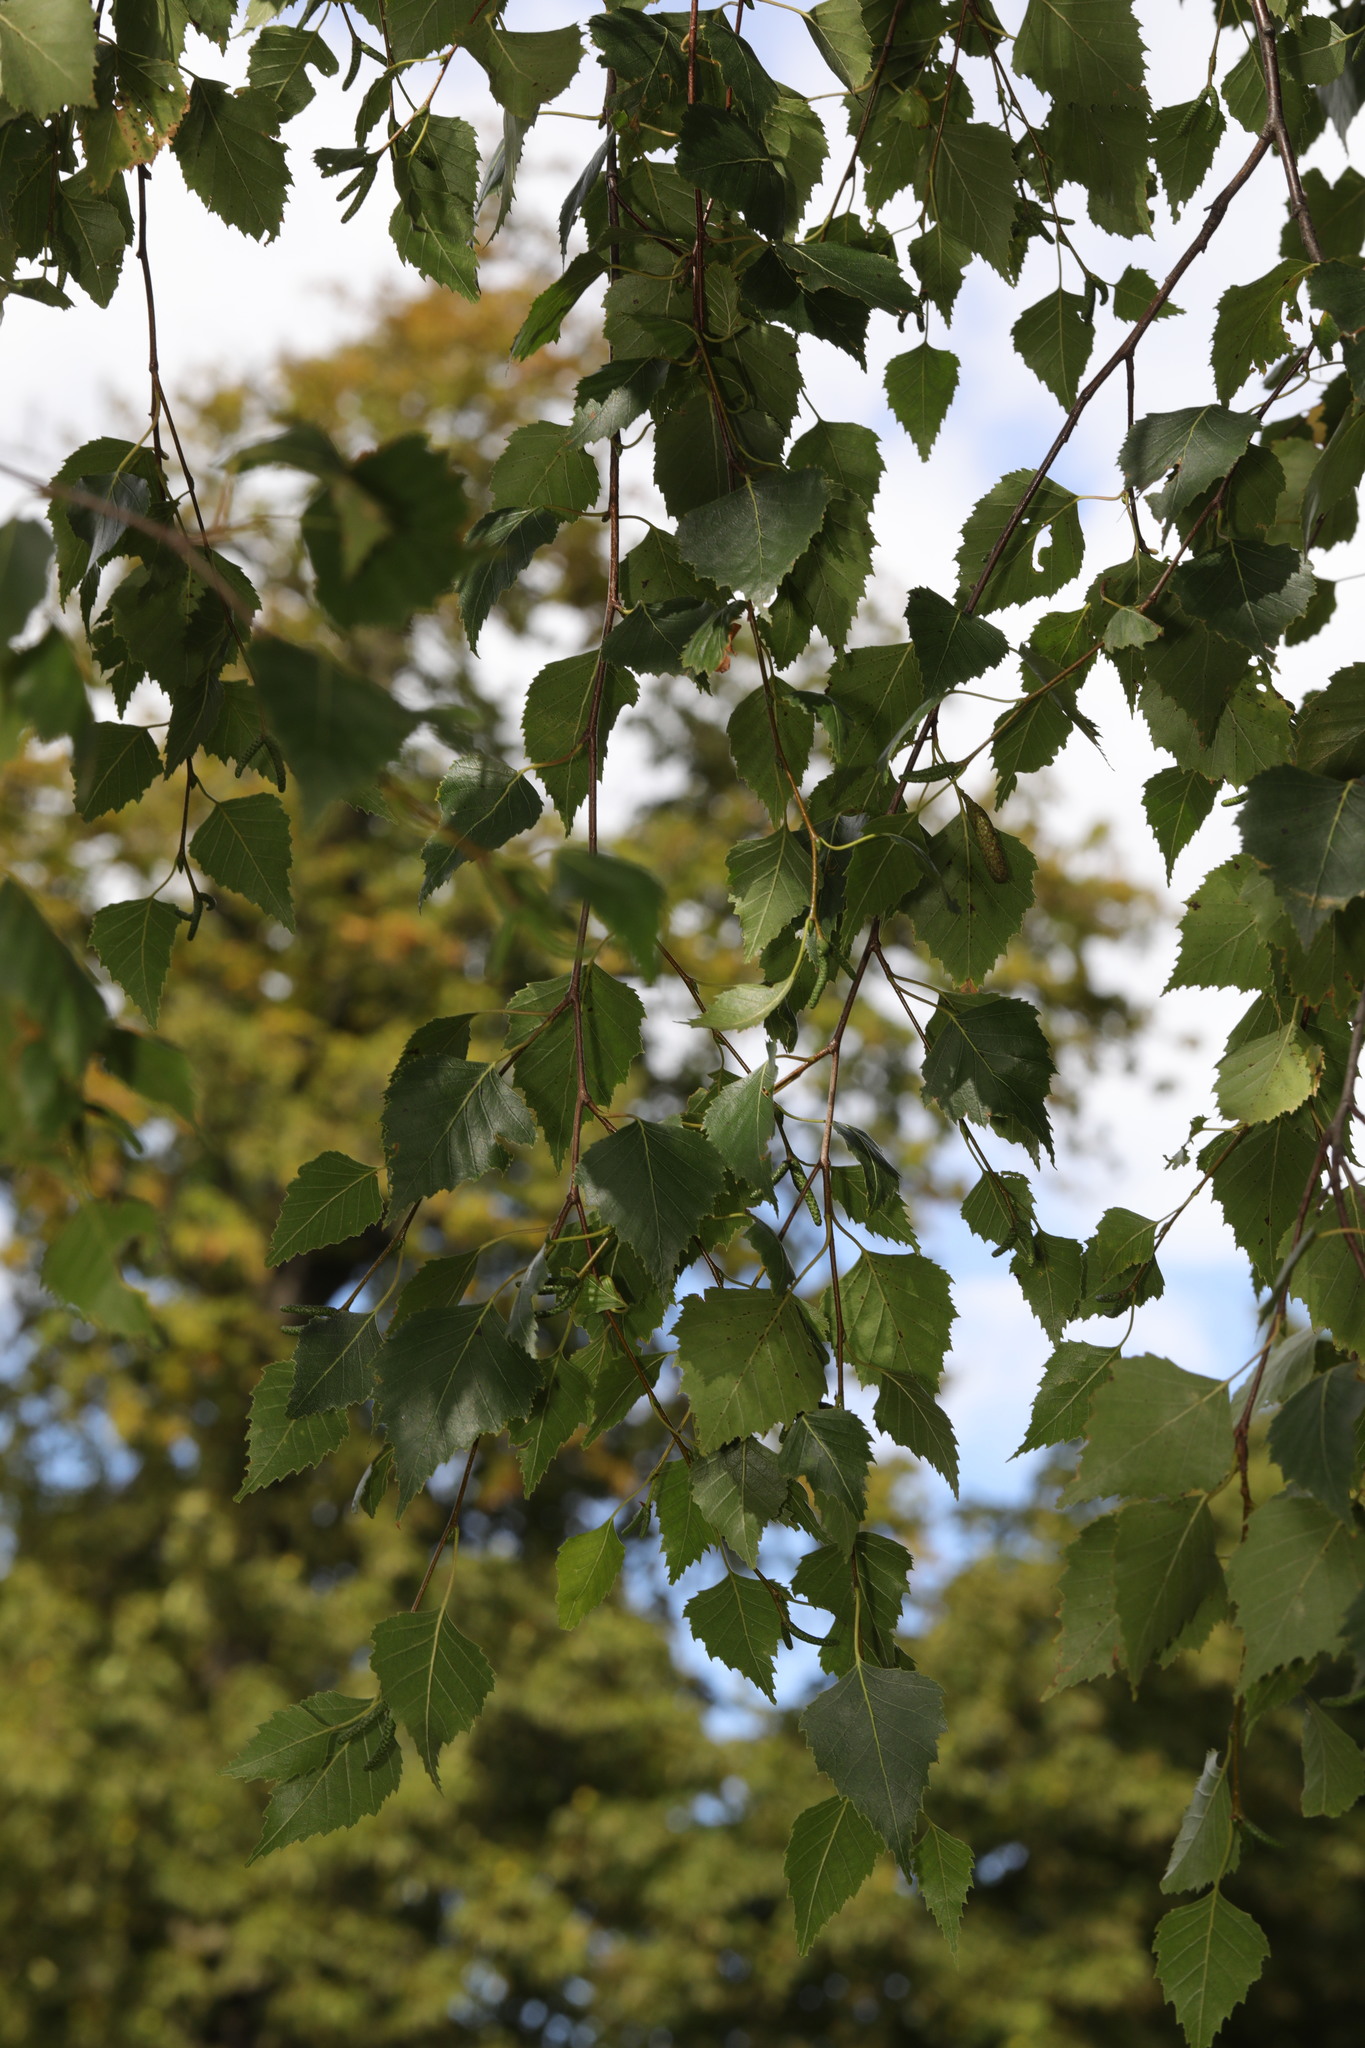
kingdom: Plantae
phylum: Tracheophyta
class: Magnoliopsida
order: Fagales
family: Betulaceae
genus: Betula
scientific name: Betula pendula
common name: Silver birch
